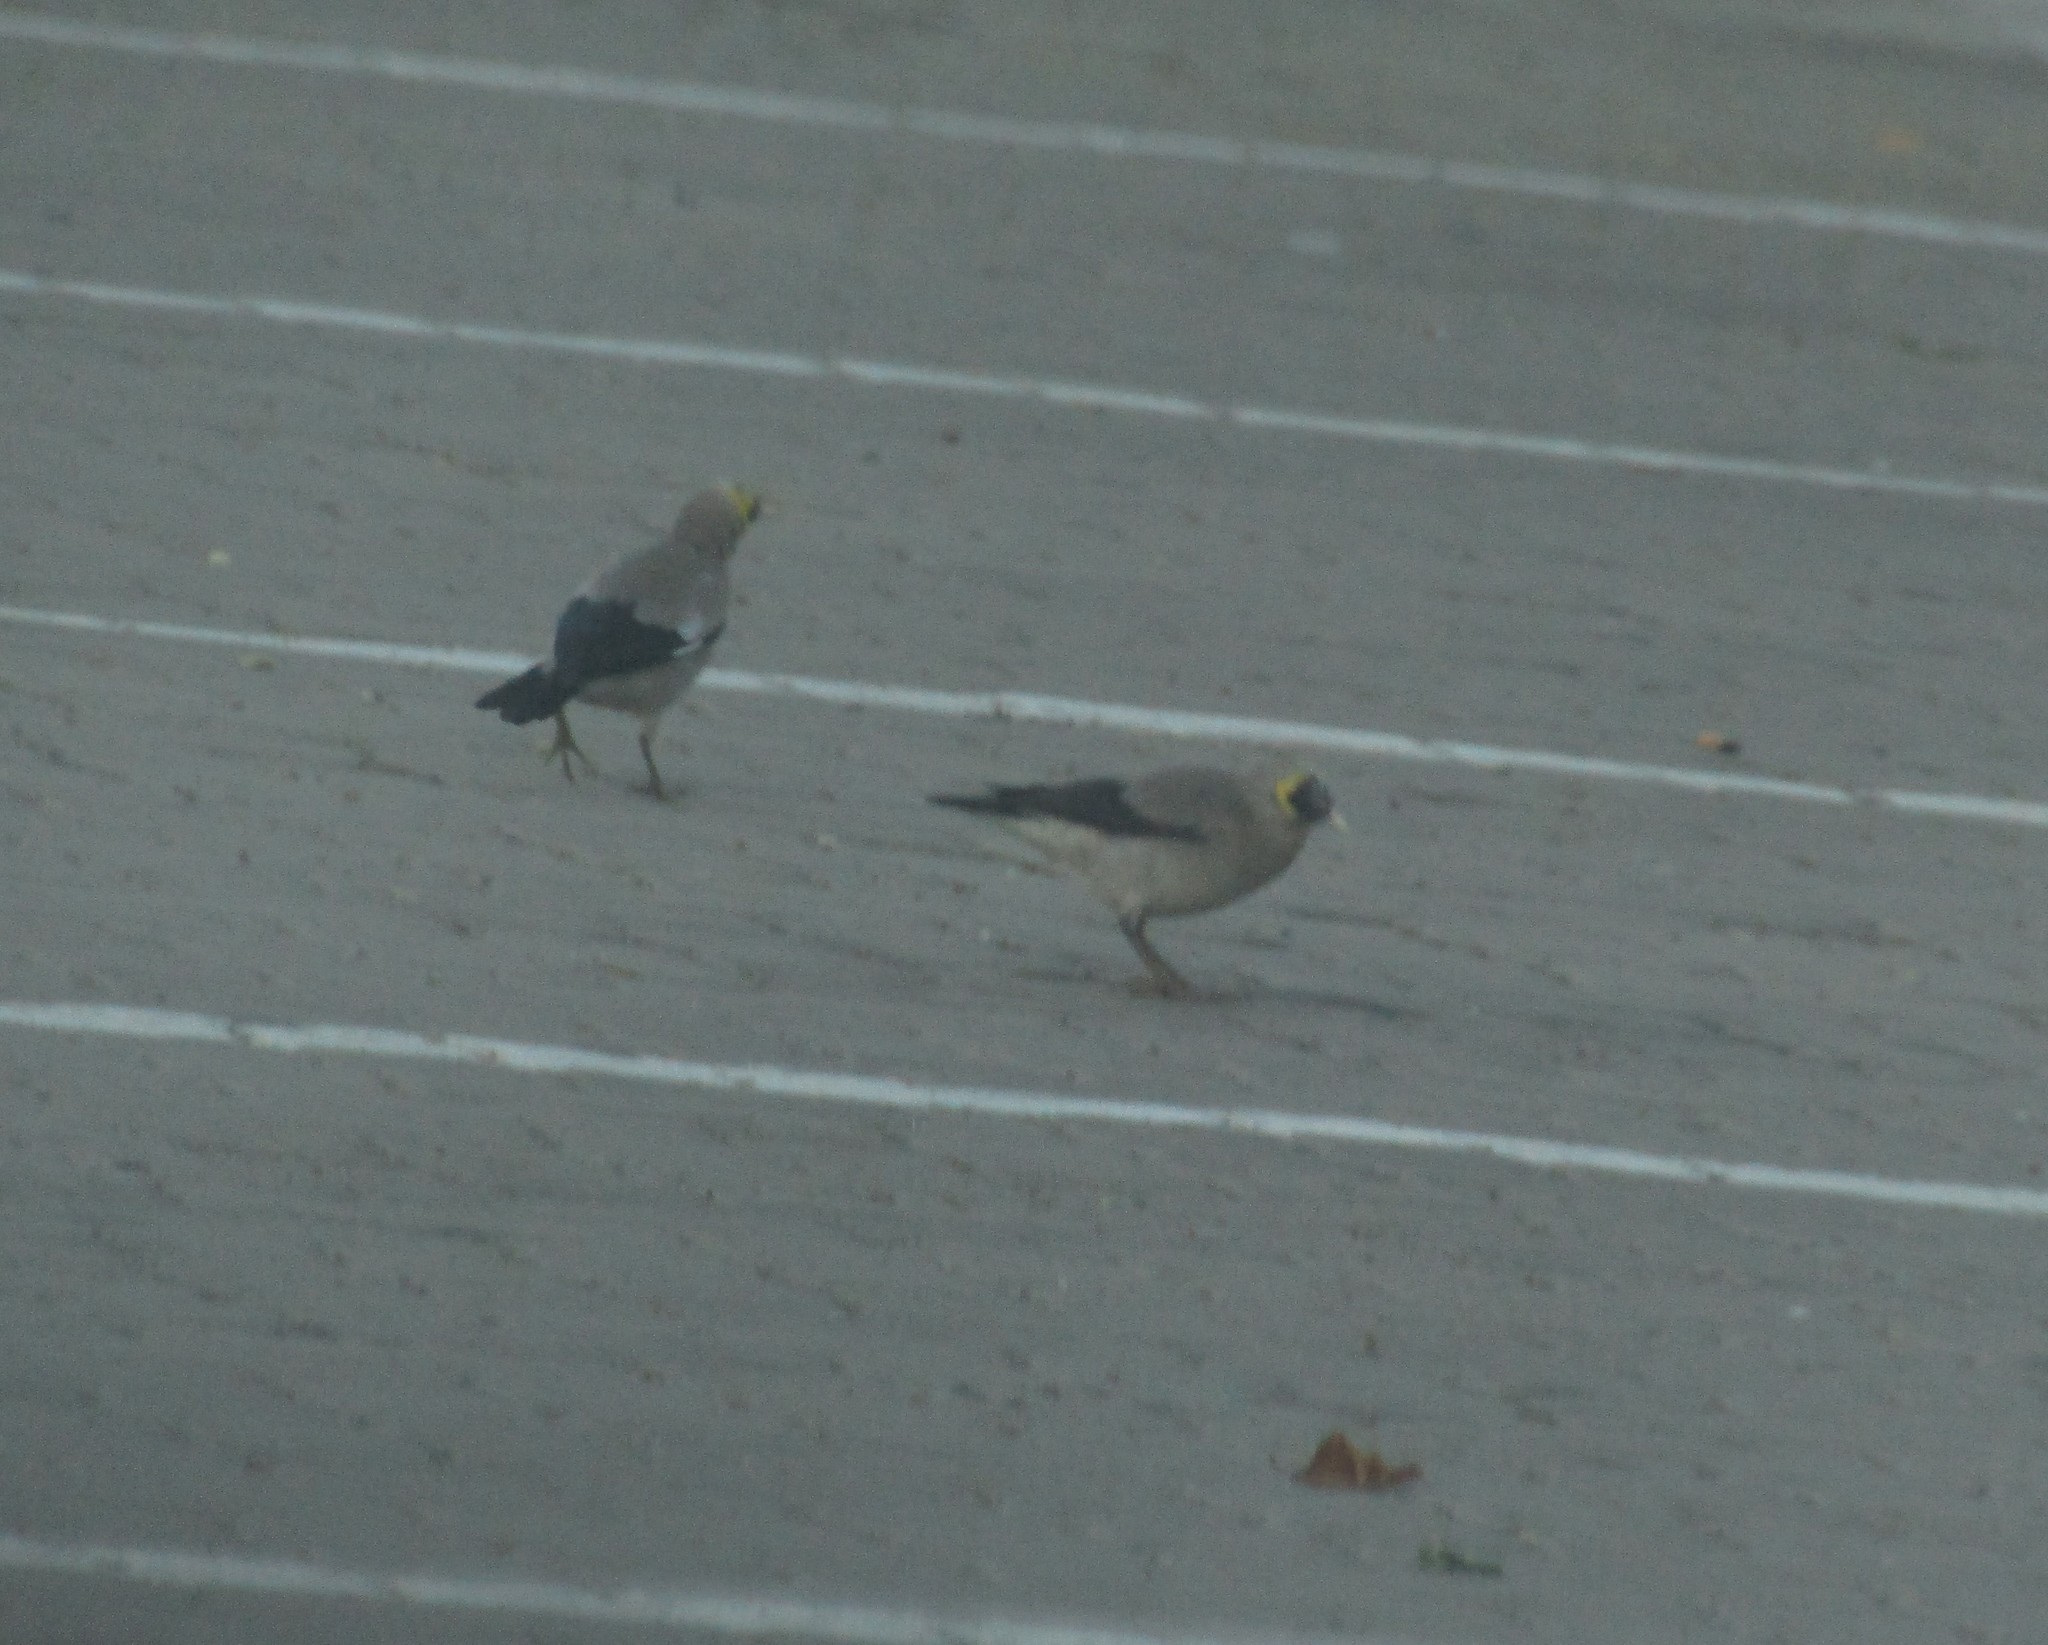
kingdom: Animalia
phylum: Chordata
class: Aves
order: Passeriformes
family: Sturnidae
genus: Creatophora
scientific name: Creatophora cinerea
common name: Wattled starling
